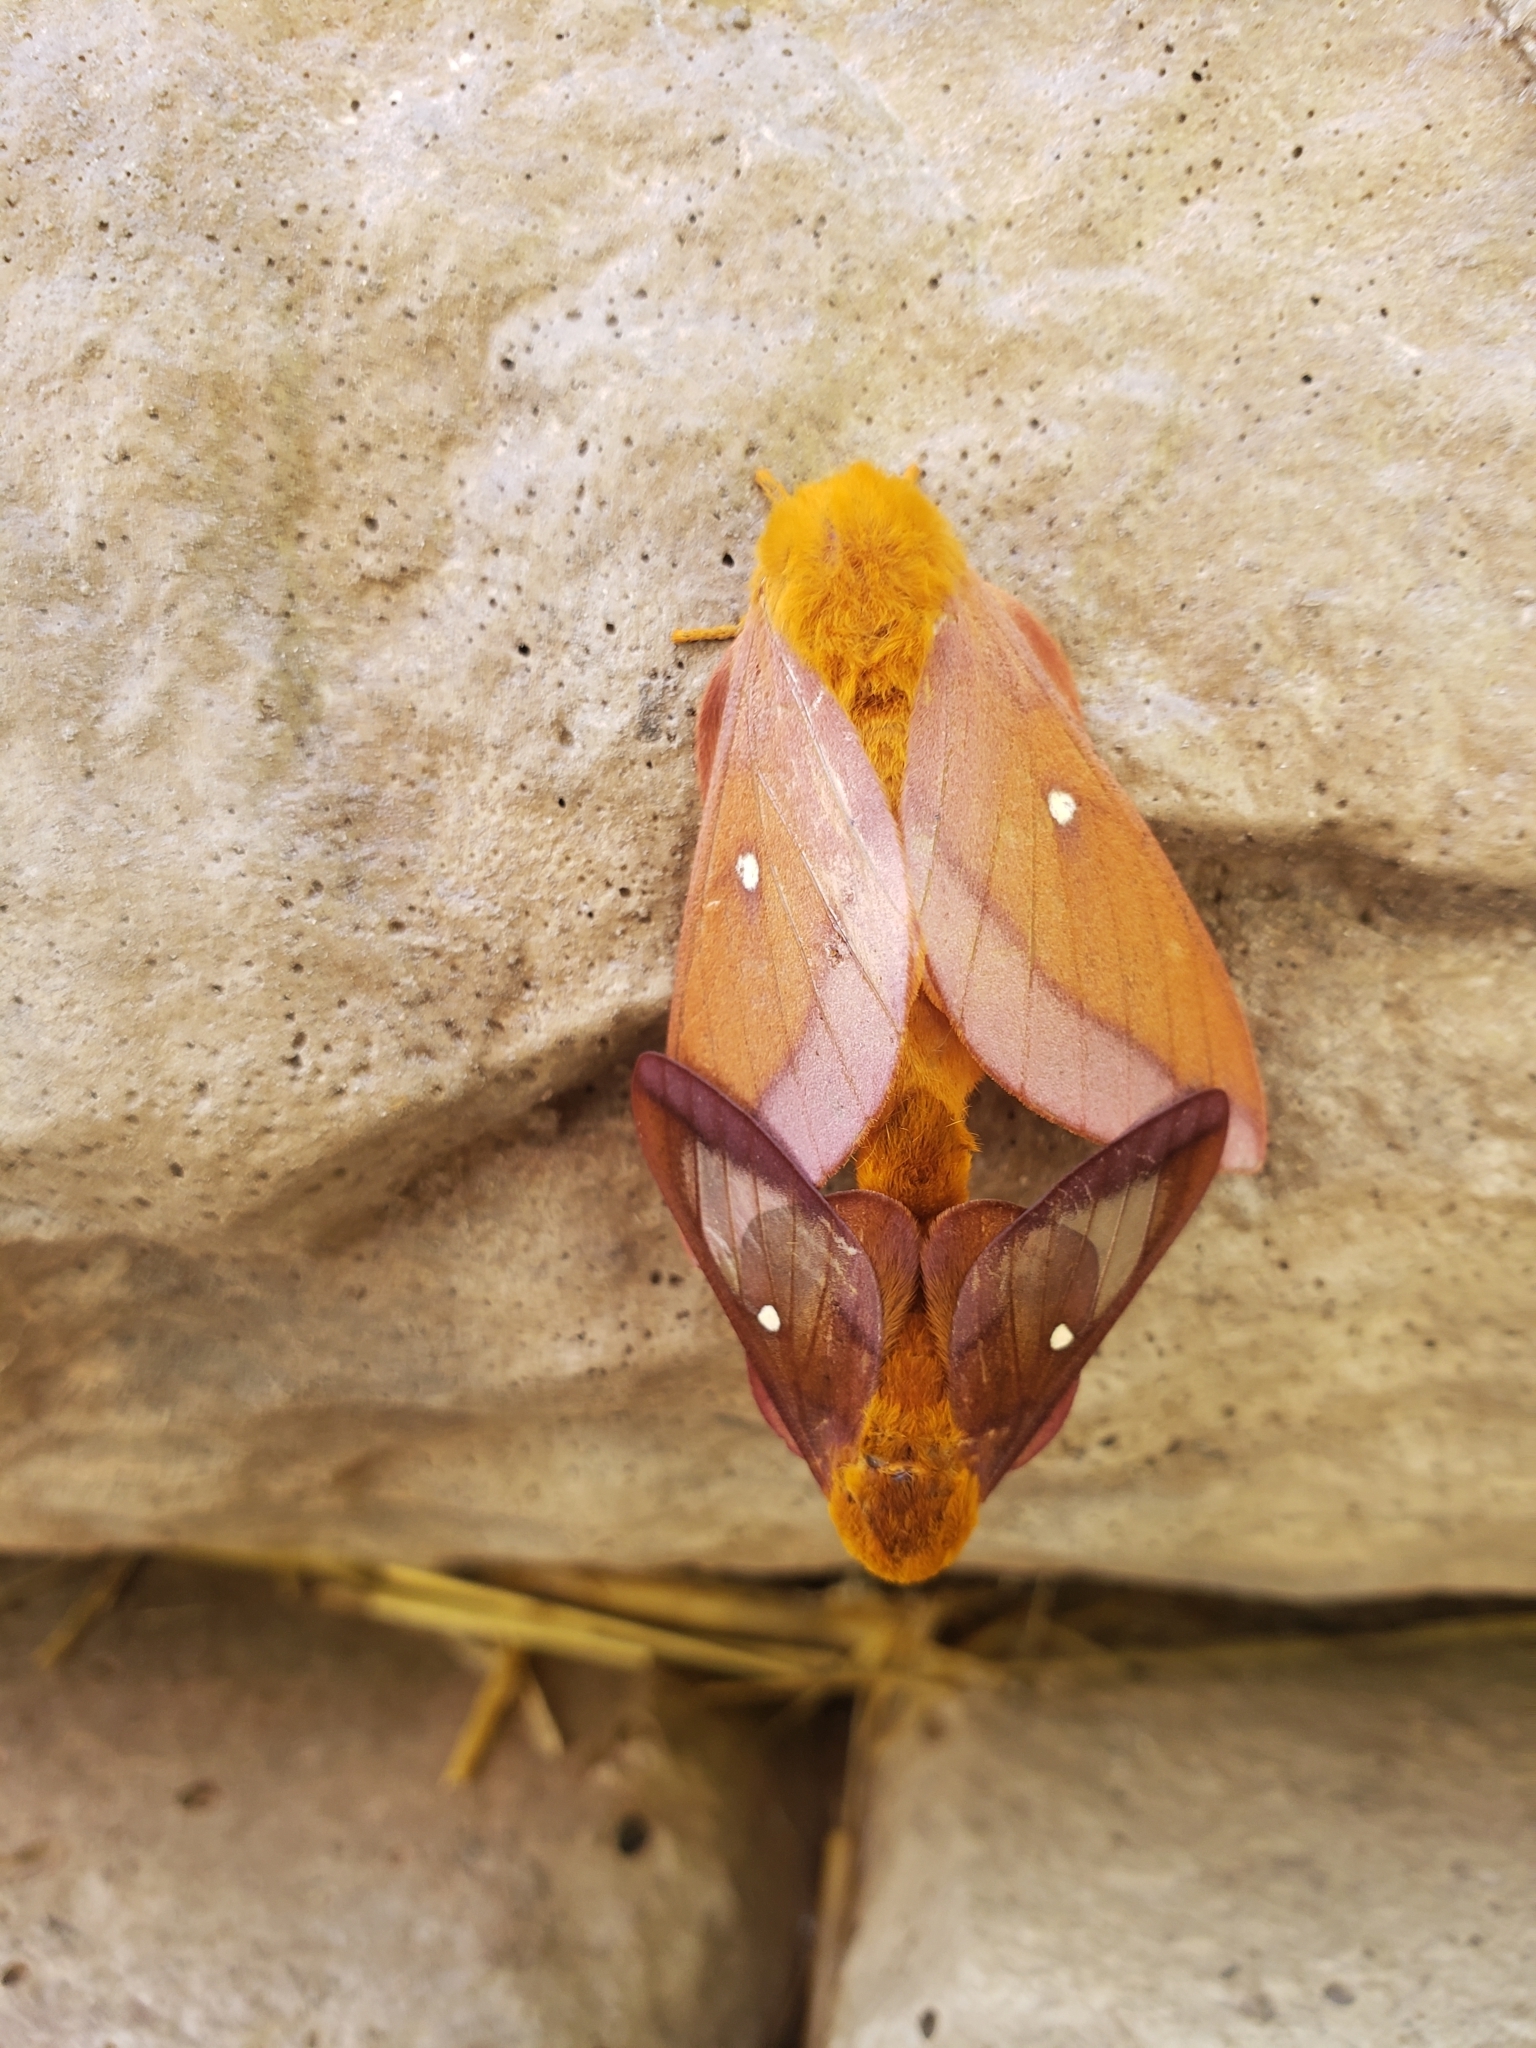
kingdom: Animalia
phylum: Arthropoda
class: Insecta
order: Lepidoptera
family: Saturniidae
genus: Anisota
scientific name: Anisota virginiensis
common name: Pink striped oakworm moth
